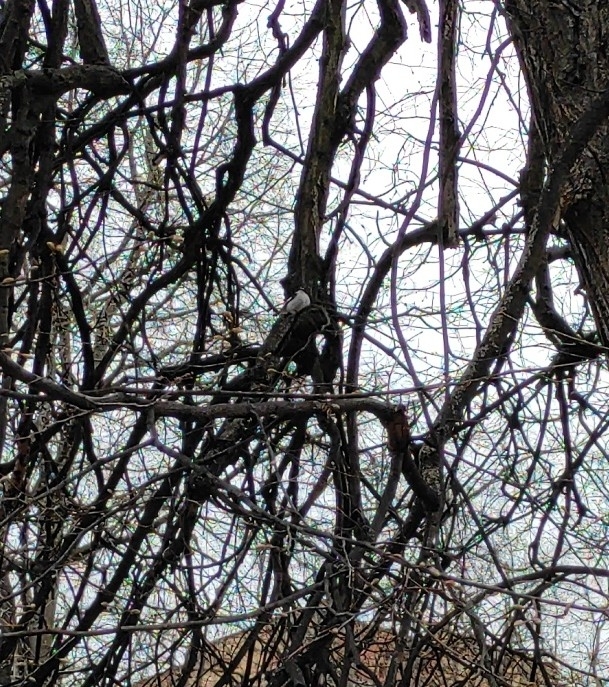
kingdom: Animalia
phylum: Chordata
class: Aves
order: Passeriformes
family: Muscicapidae
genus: Ficedula
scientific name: Ficedula hypoleuca
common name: European pied flycatcher
